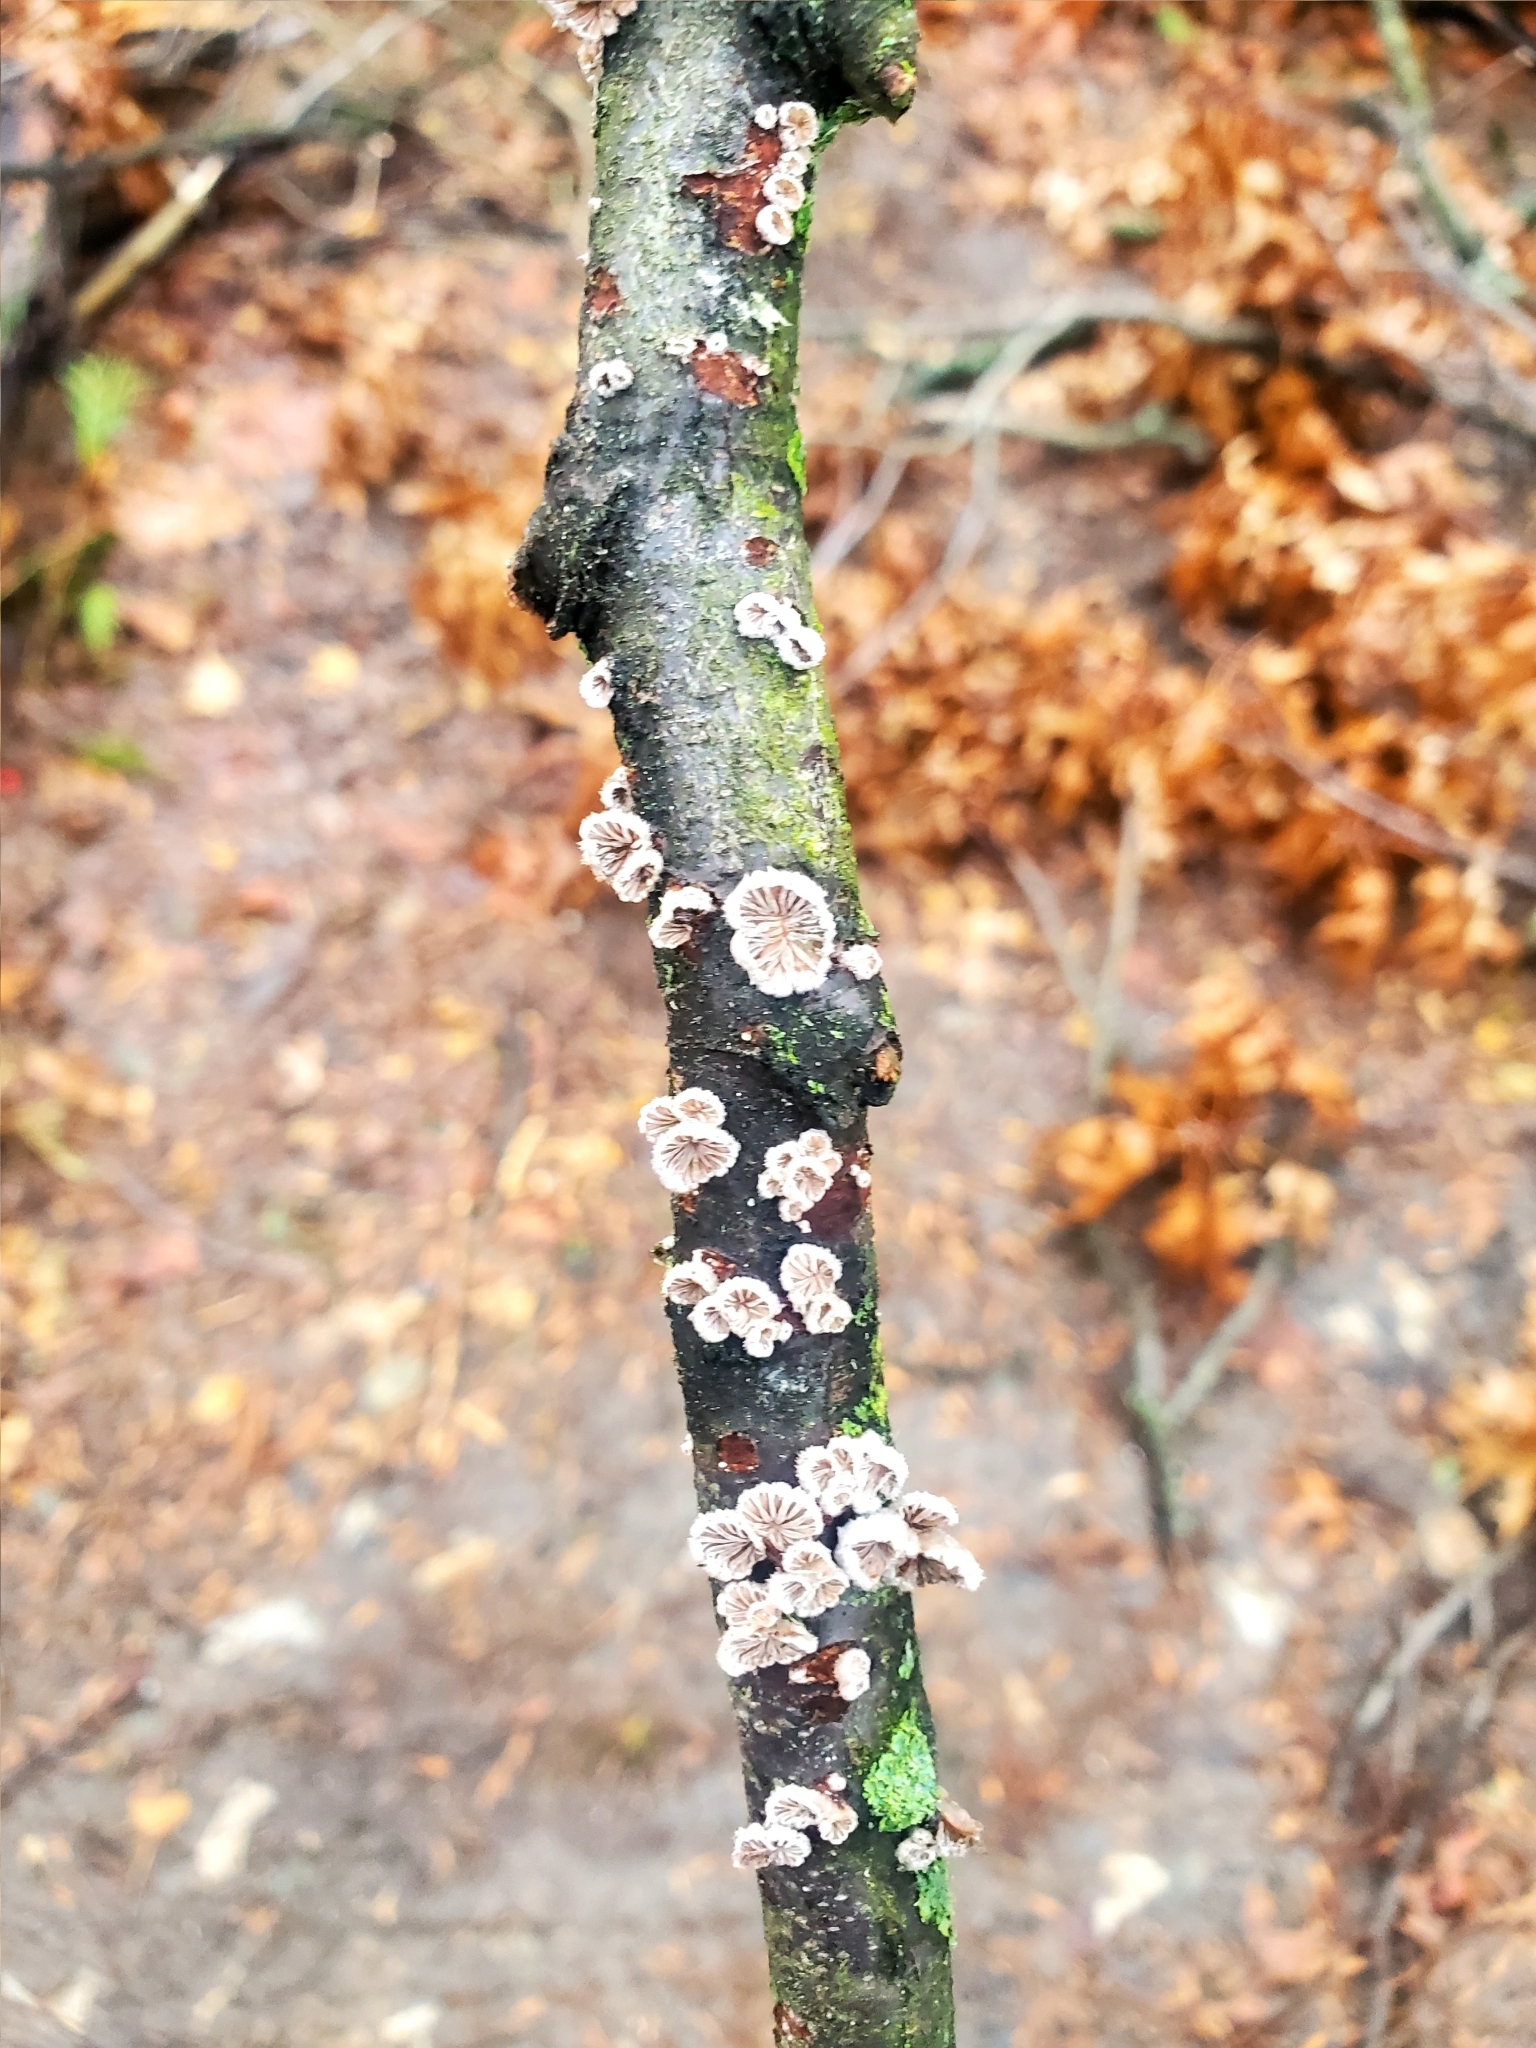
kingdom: Fungi
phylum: Basidiomycota
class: Agaricomycetes
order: Agaricales
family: Schizophyllaceae
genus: Schizophyllum
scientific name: Schizophyllum commune
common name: Common porecrust
